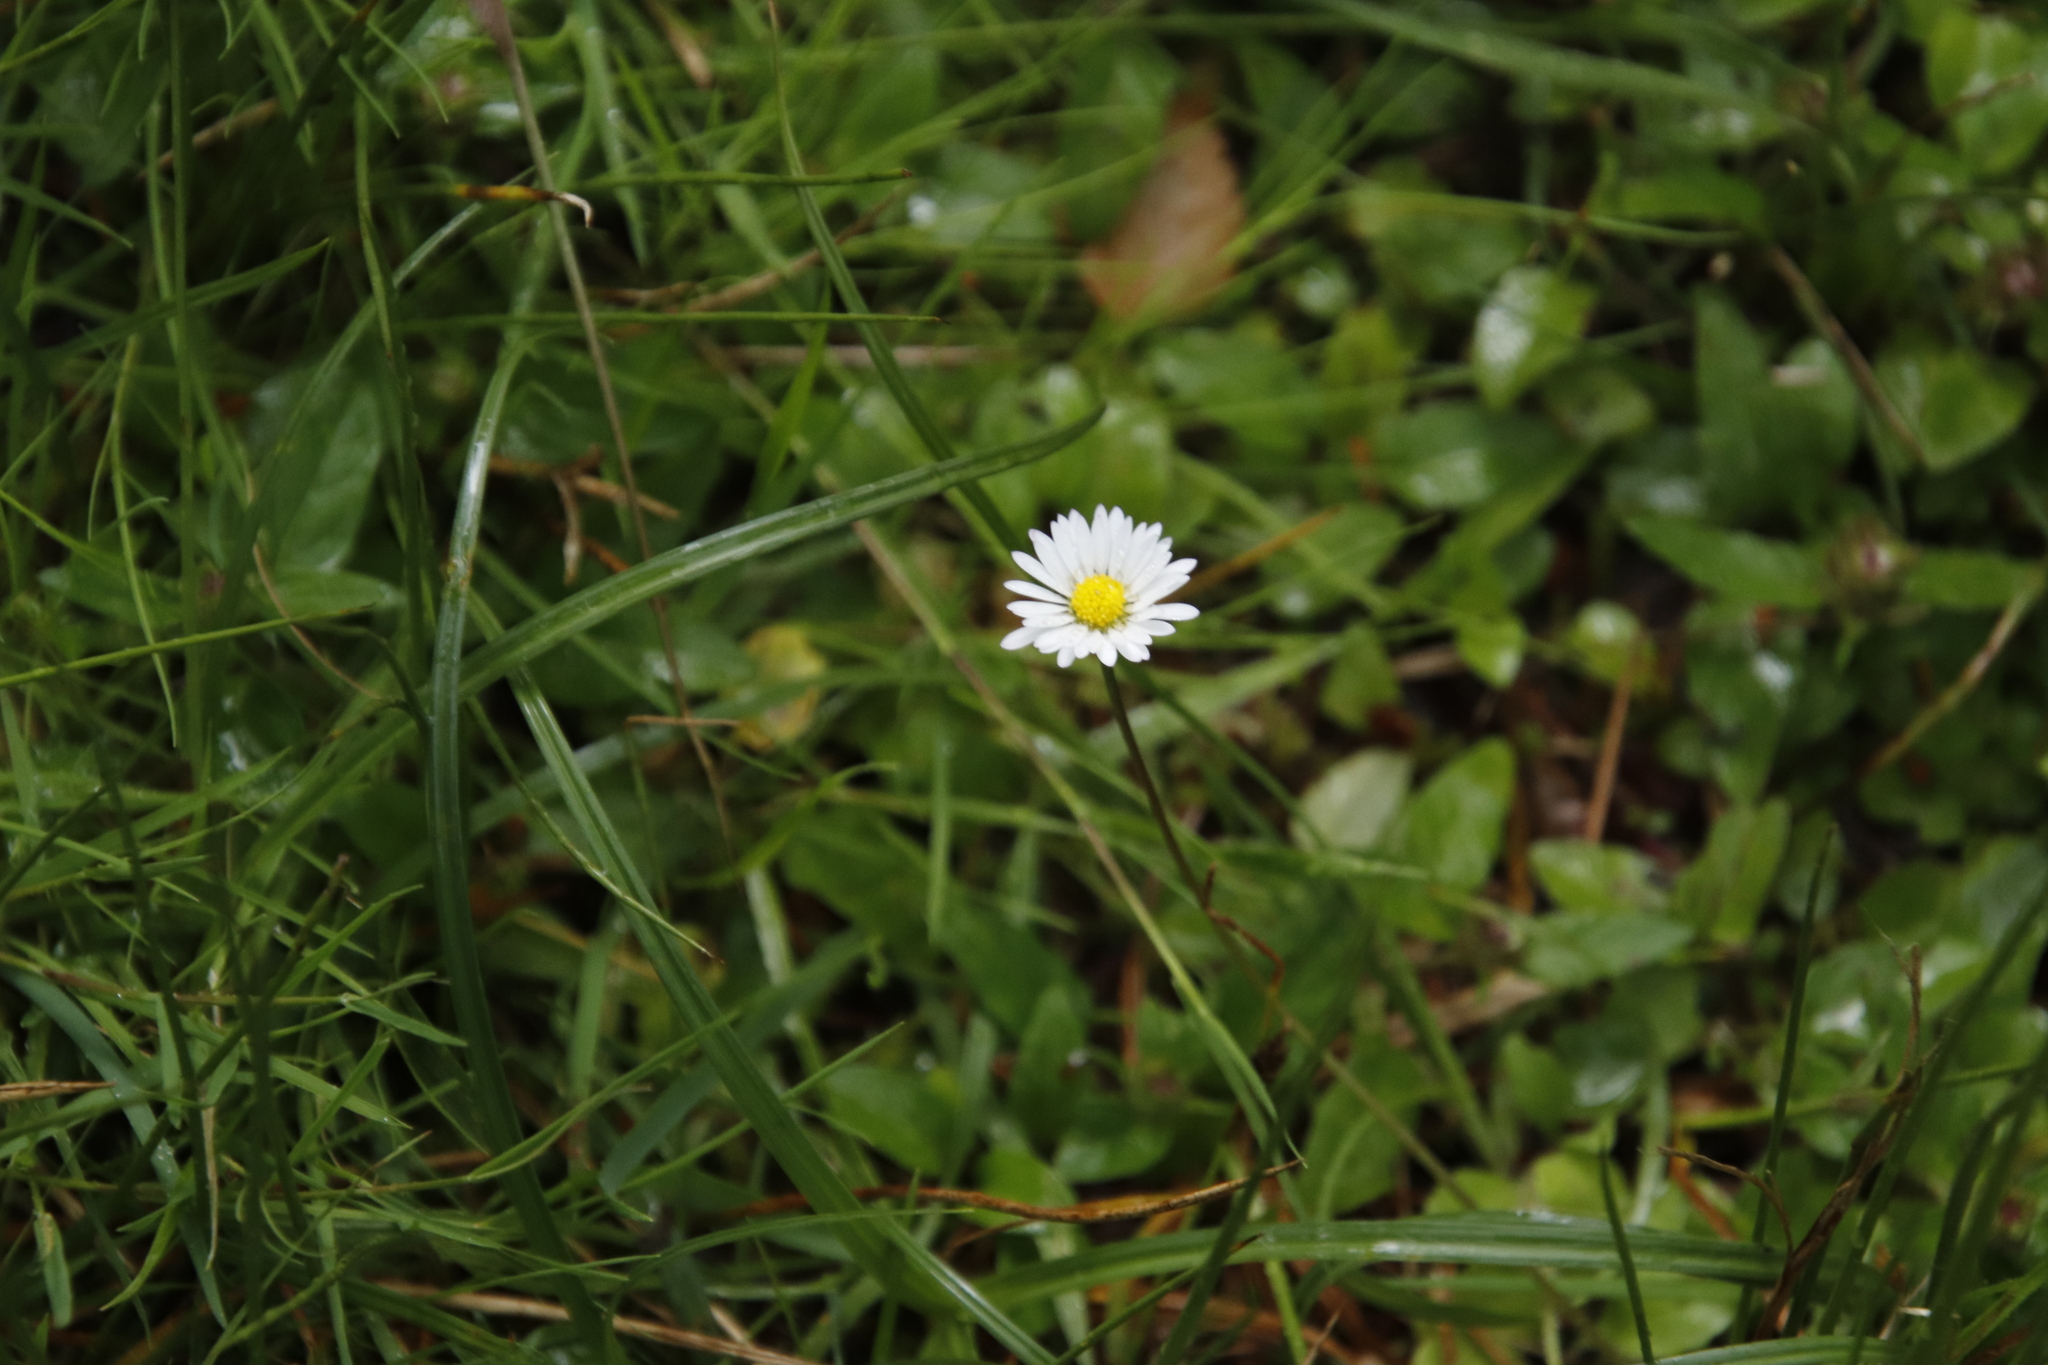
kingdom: Plantae
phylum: Tracheophyta
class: Magnoliopsida
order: Asterales
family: Asteraceae
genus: Bellis
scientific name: Bellis perennis
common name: Lawndaisy
